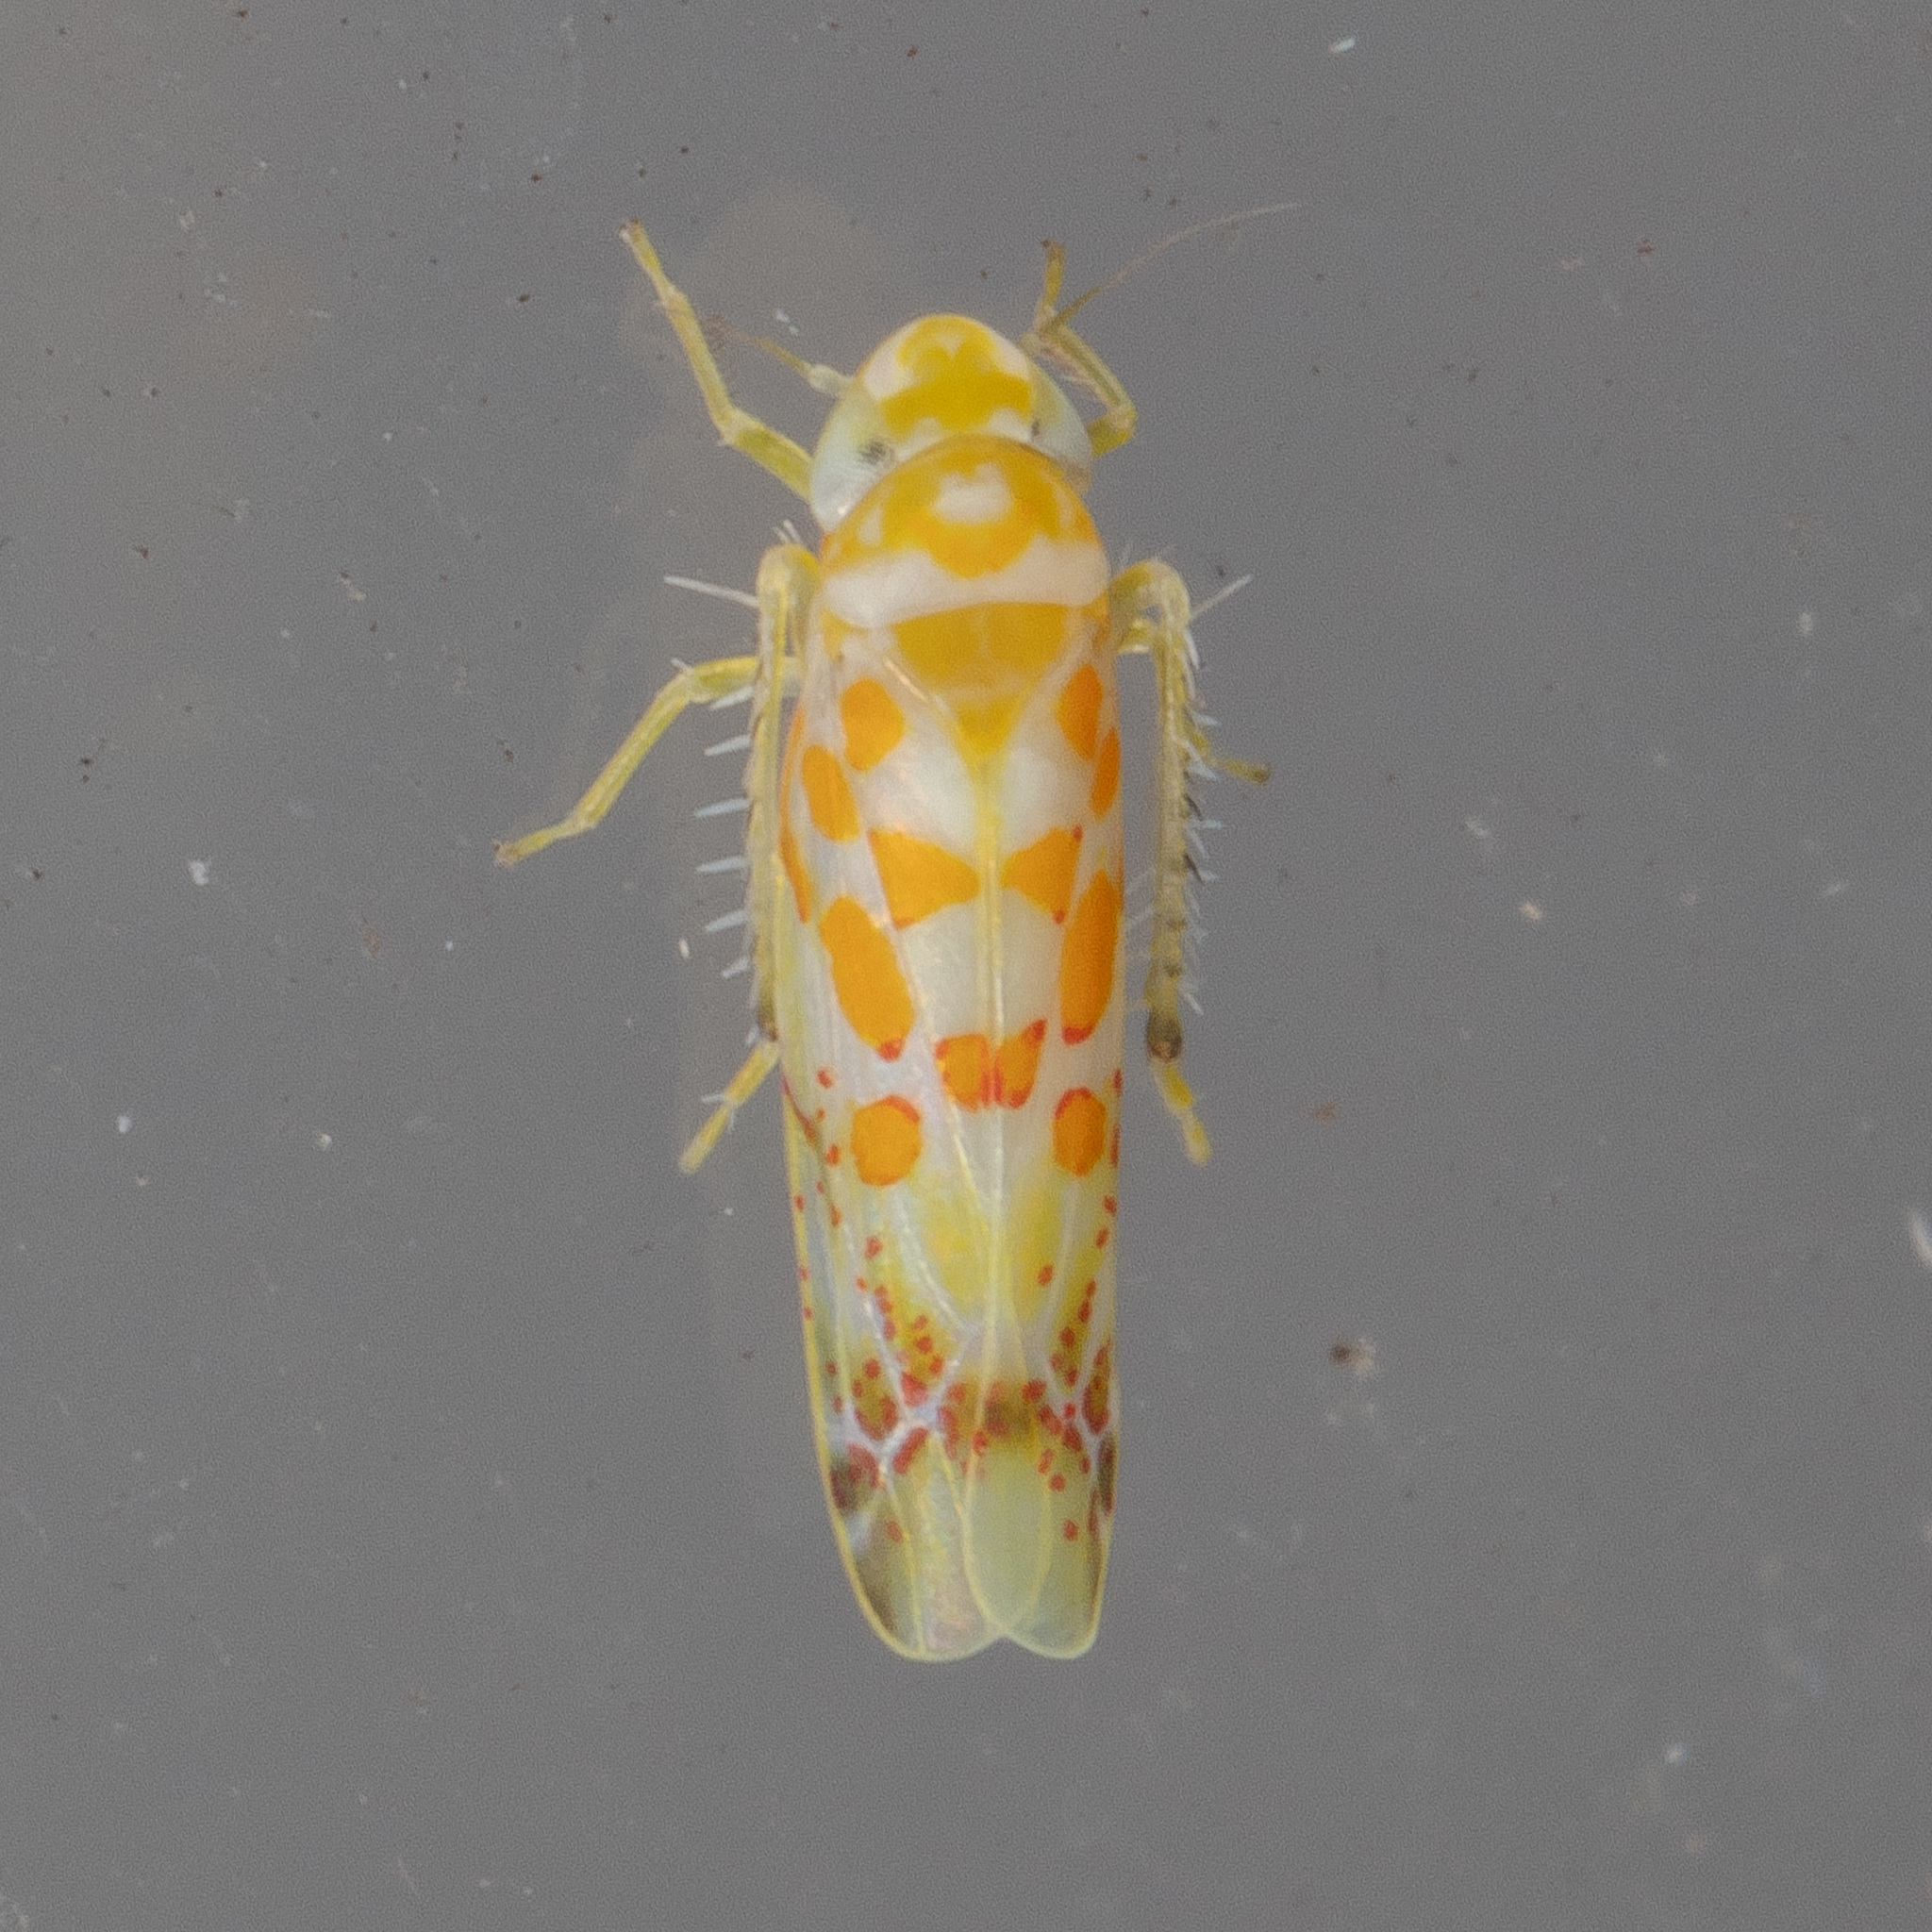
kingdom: Animalia
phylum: Arthropoda
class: Insecta
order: Hemiptera
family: Cicadellidae
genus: Dikrella
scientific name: Dikrella maculata
